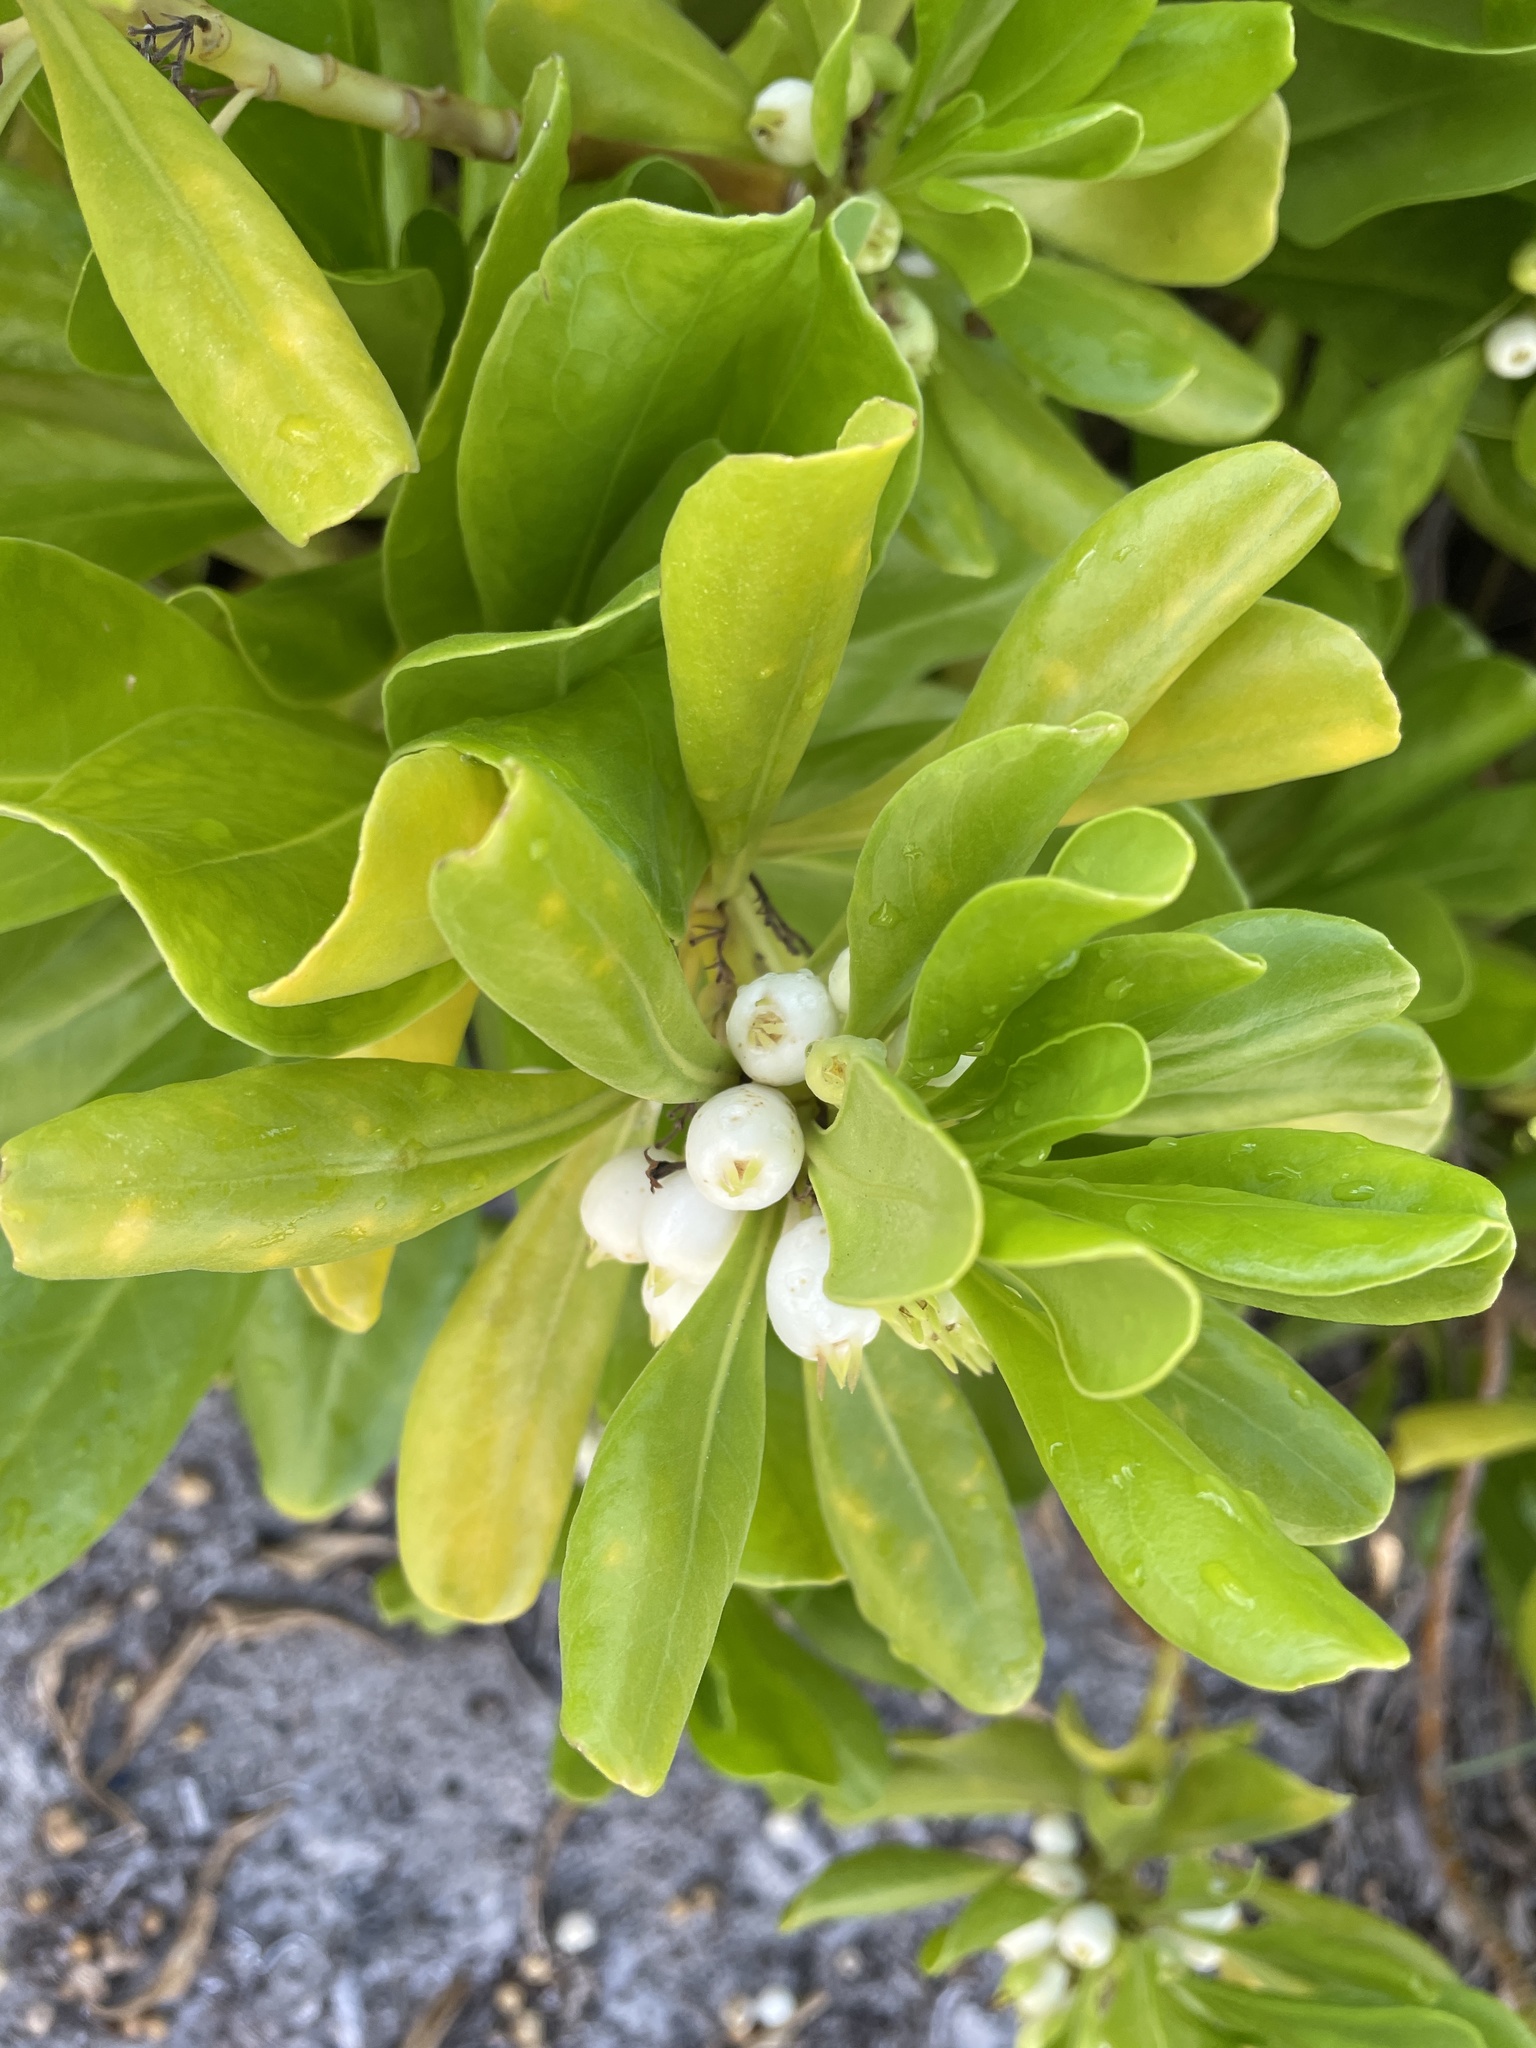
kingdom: Plantae
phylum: Tracheophyta
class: Magnoliopsida
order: Asterales
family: Goodeniaceae
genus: Scaevola
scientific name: Scaevola taccada
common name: Sea lettucetree
